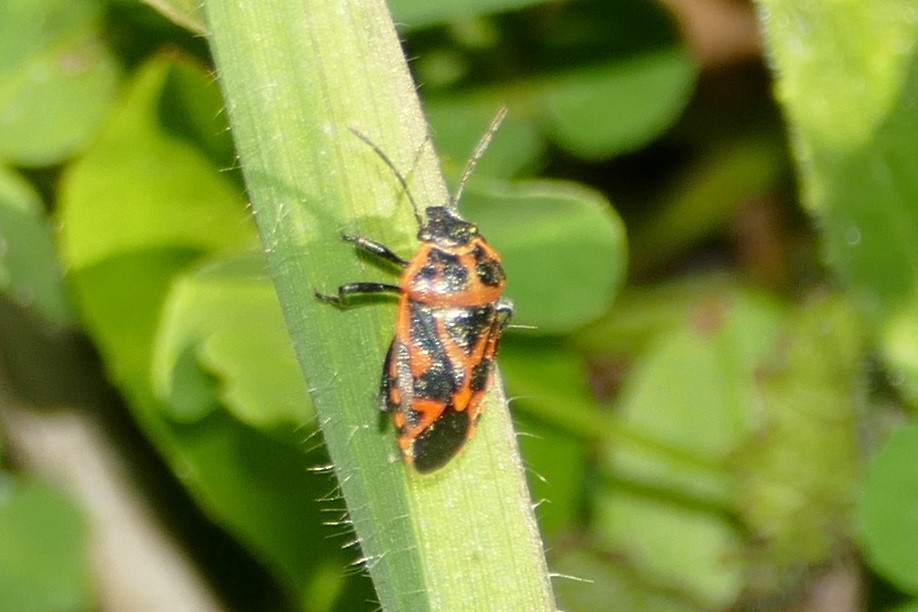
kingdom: Animalia
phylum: Arthropoda
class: Insecta
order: Hemiptera
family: Pentatomidae
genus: Eurydema
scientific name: Eurydema ornata
